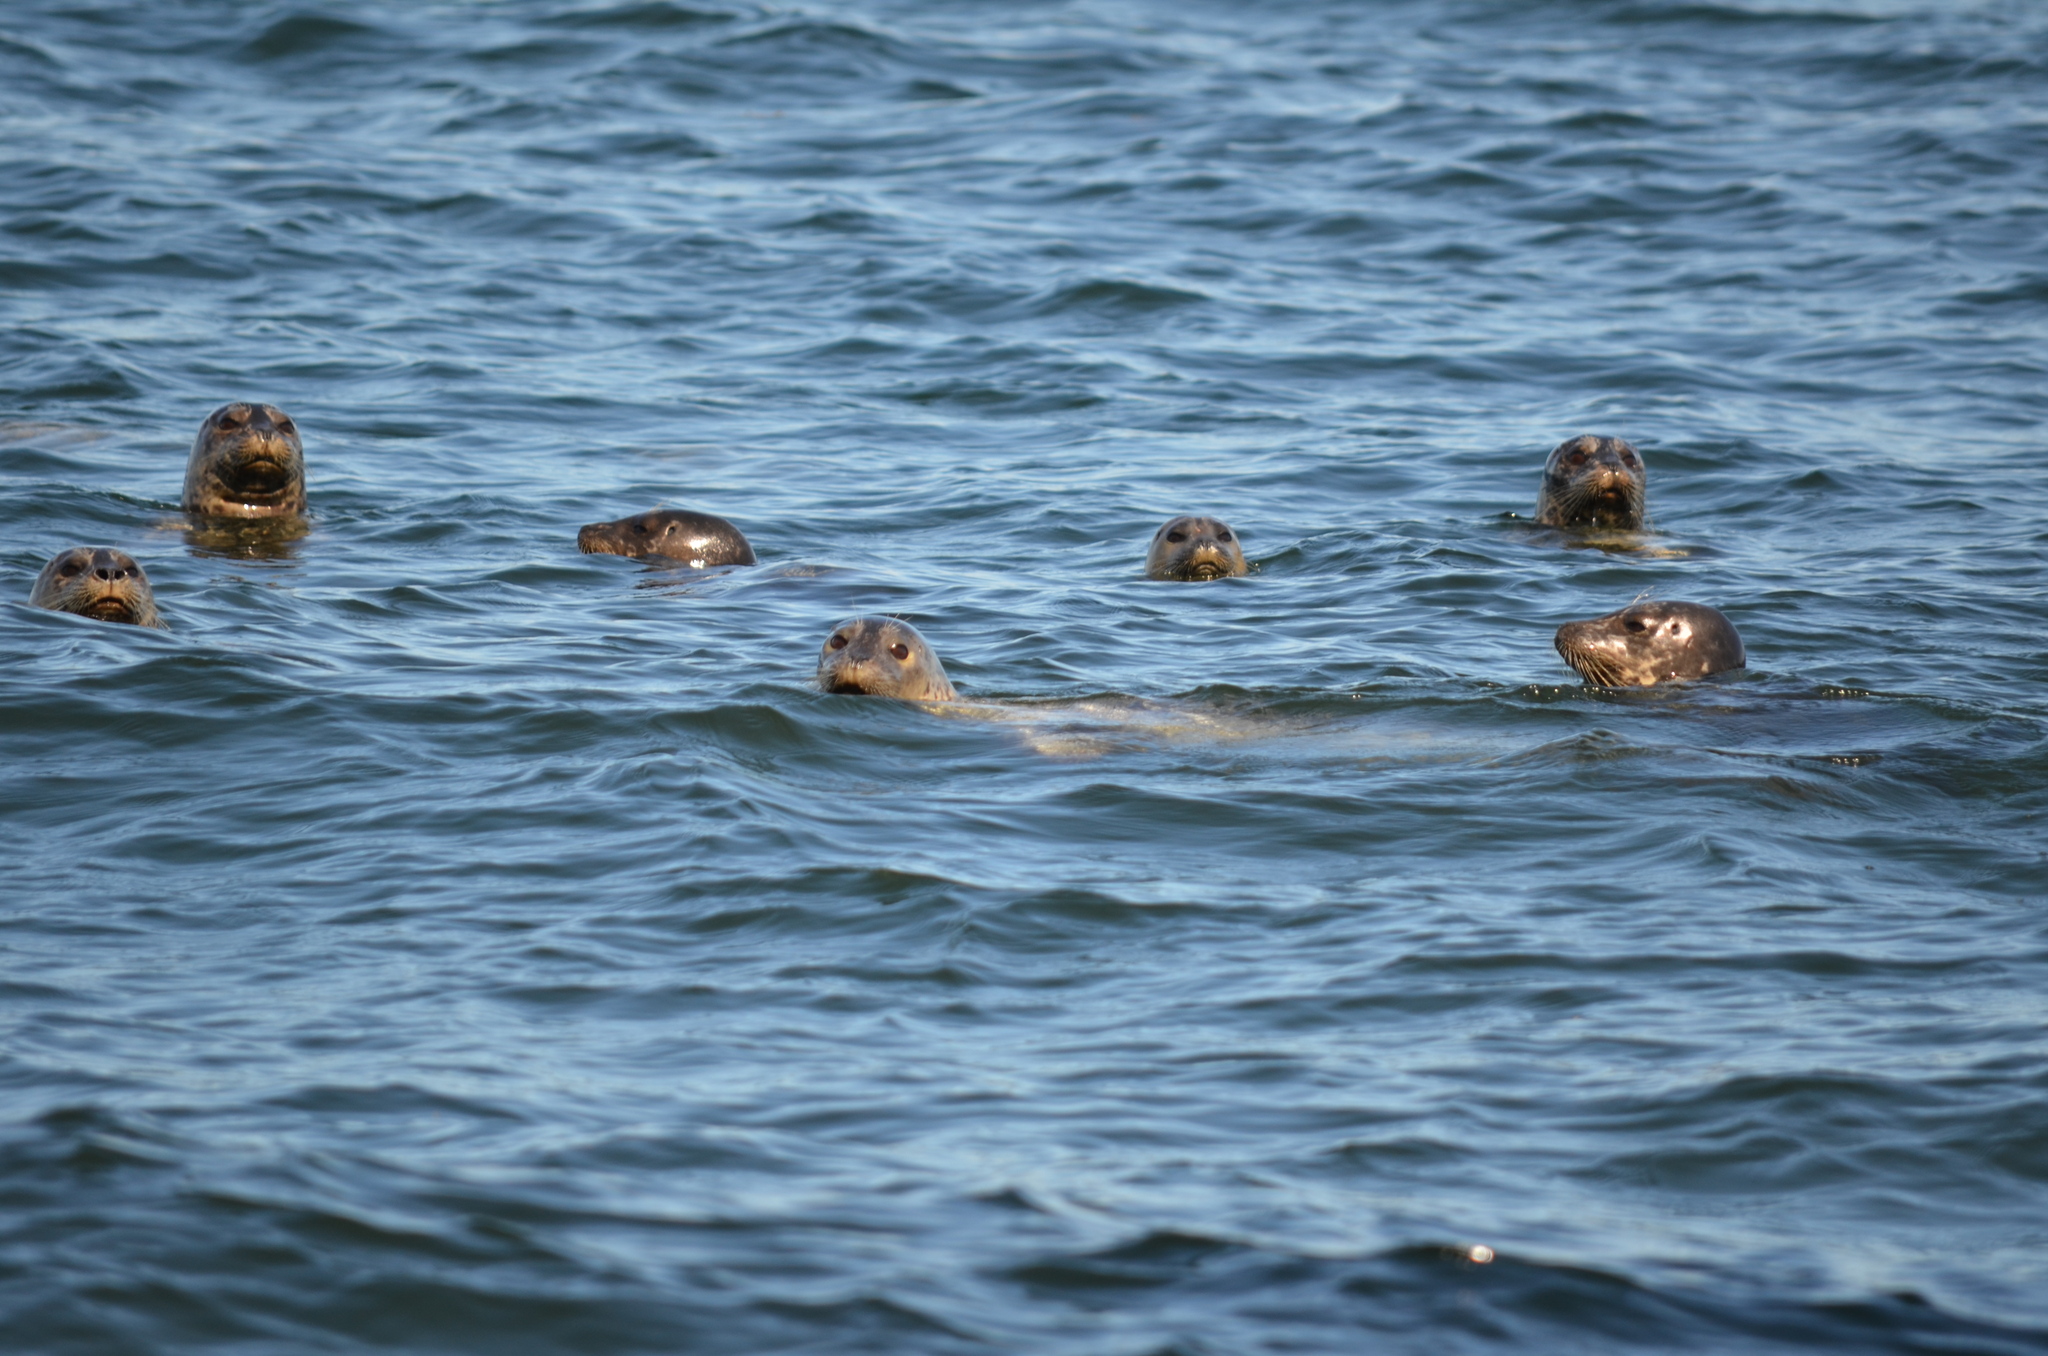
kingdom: Animalia
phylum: Chordata
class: Mammalia
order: Carnivora
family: Phocidae
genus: Phoca
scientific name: Phoca vitulina
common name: Harbor seal
